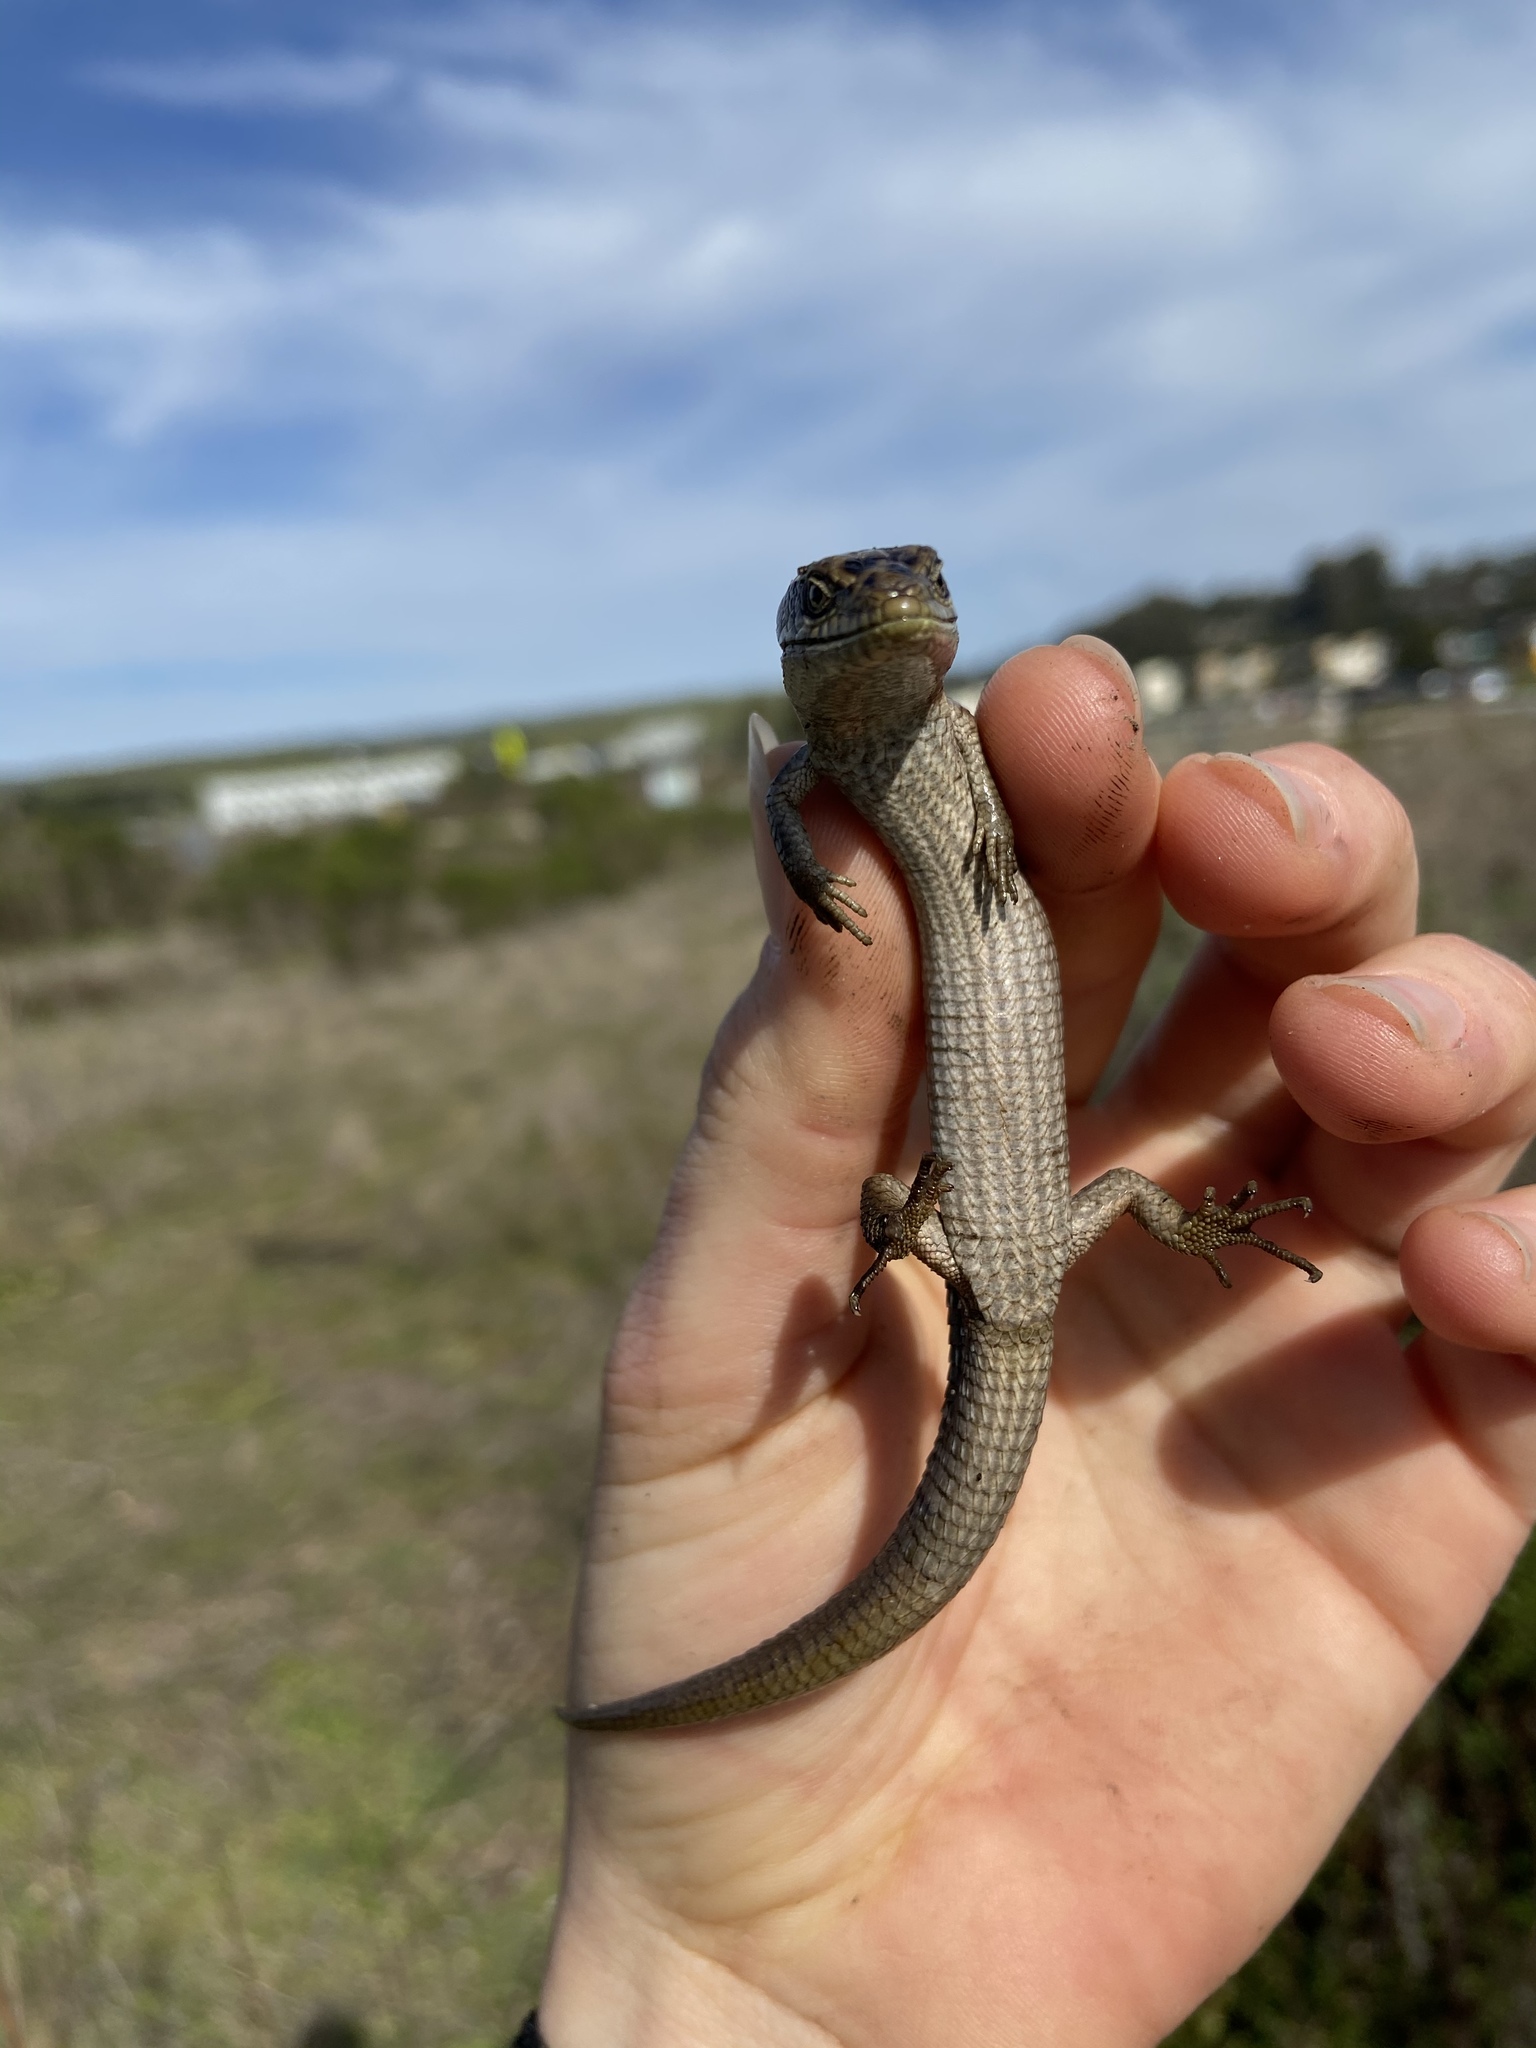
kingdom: Animalia
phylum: Chordata
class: Squamata
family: Anguidae
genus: Elgaria
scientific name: Elgaria multicarinata
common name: Southern alligator lizard
